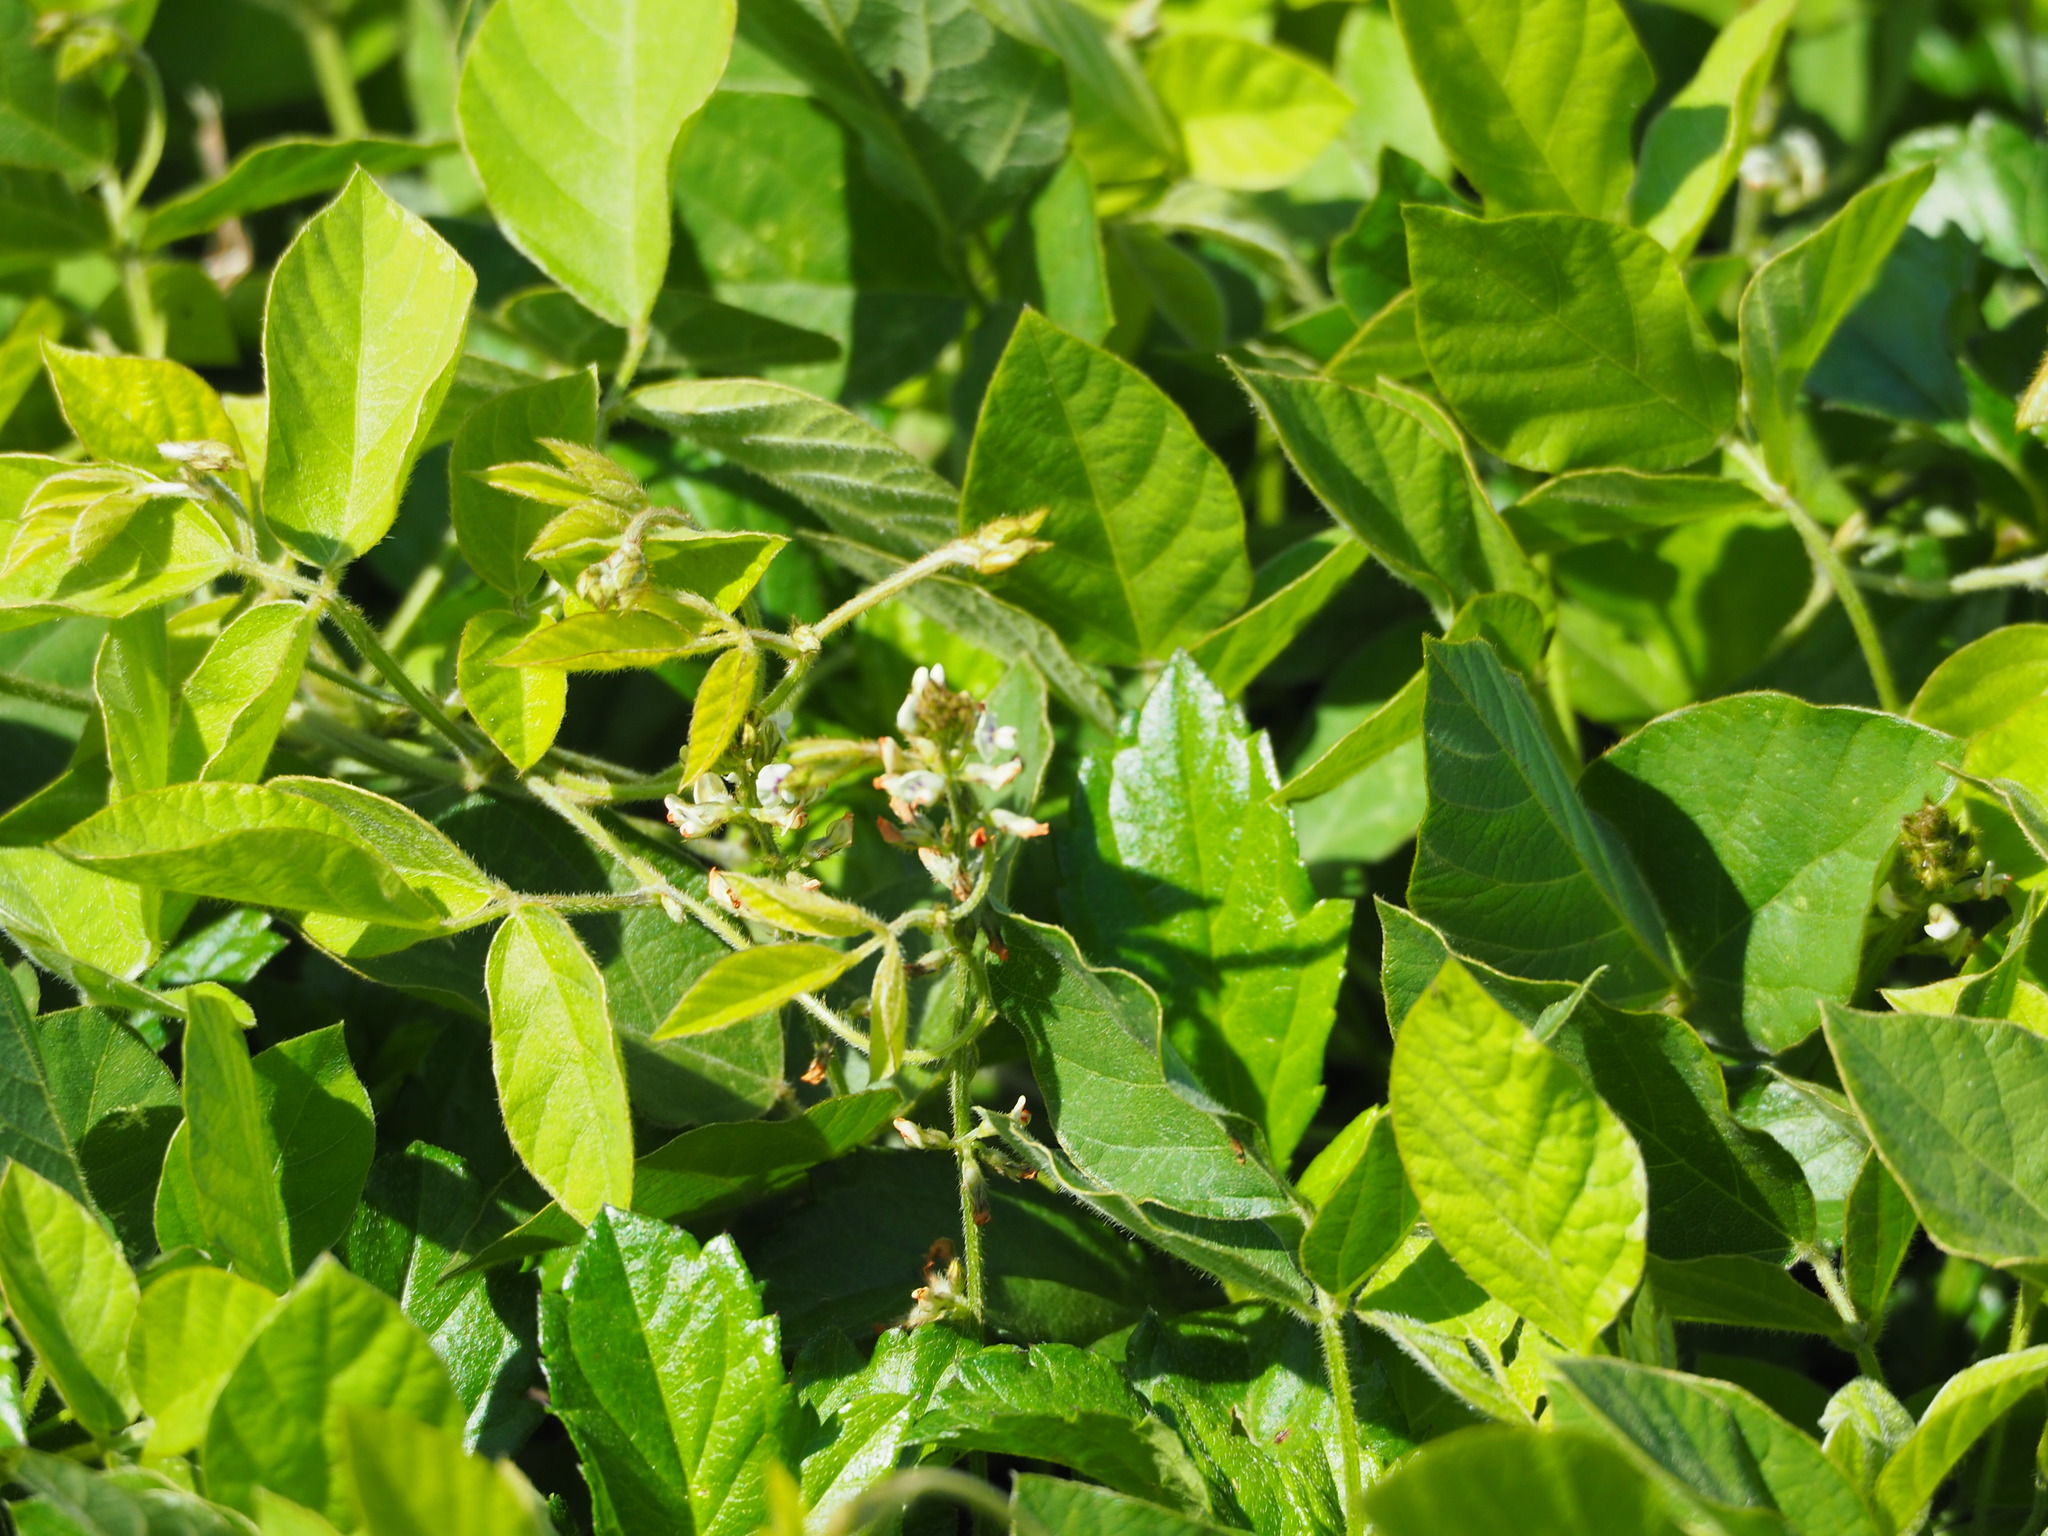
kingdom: Plantae
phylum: Tracheophyta
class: Magnoliopsida
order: Fabales
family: Fabaceae
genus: Neonotonia
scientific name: Neonotonia wightii
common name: Perennial soybean
